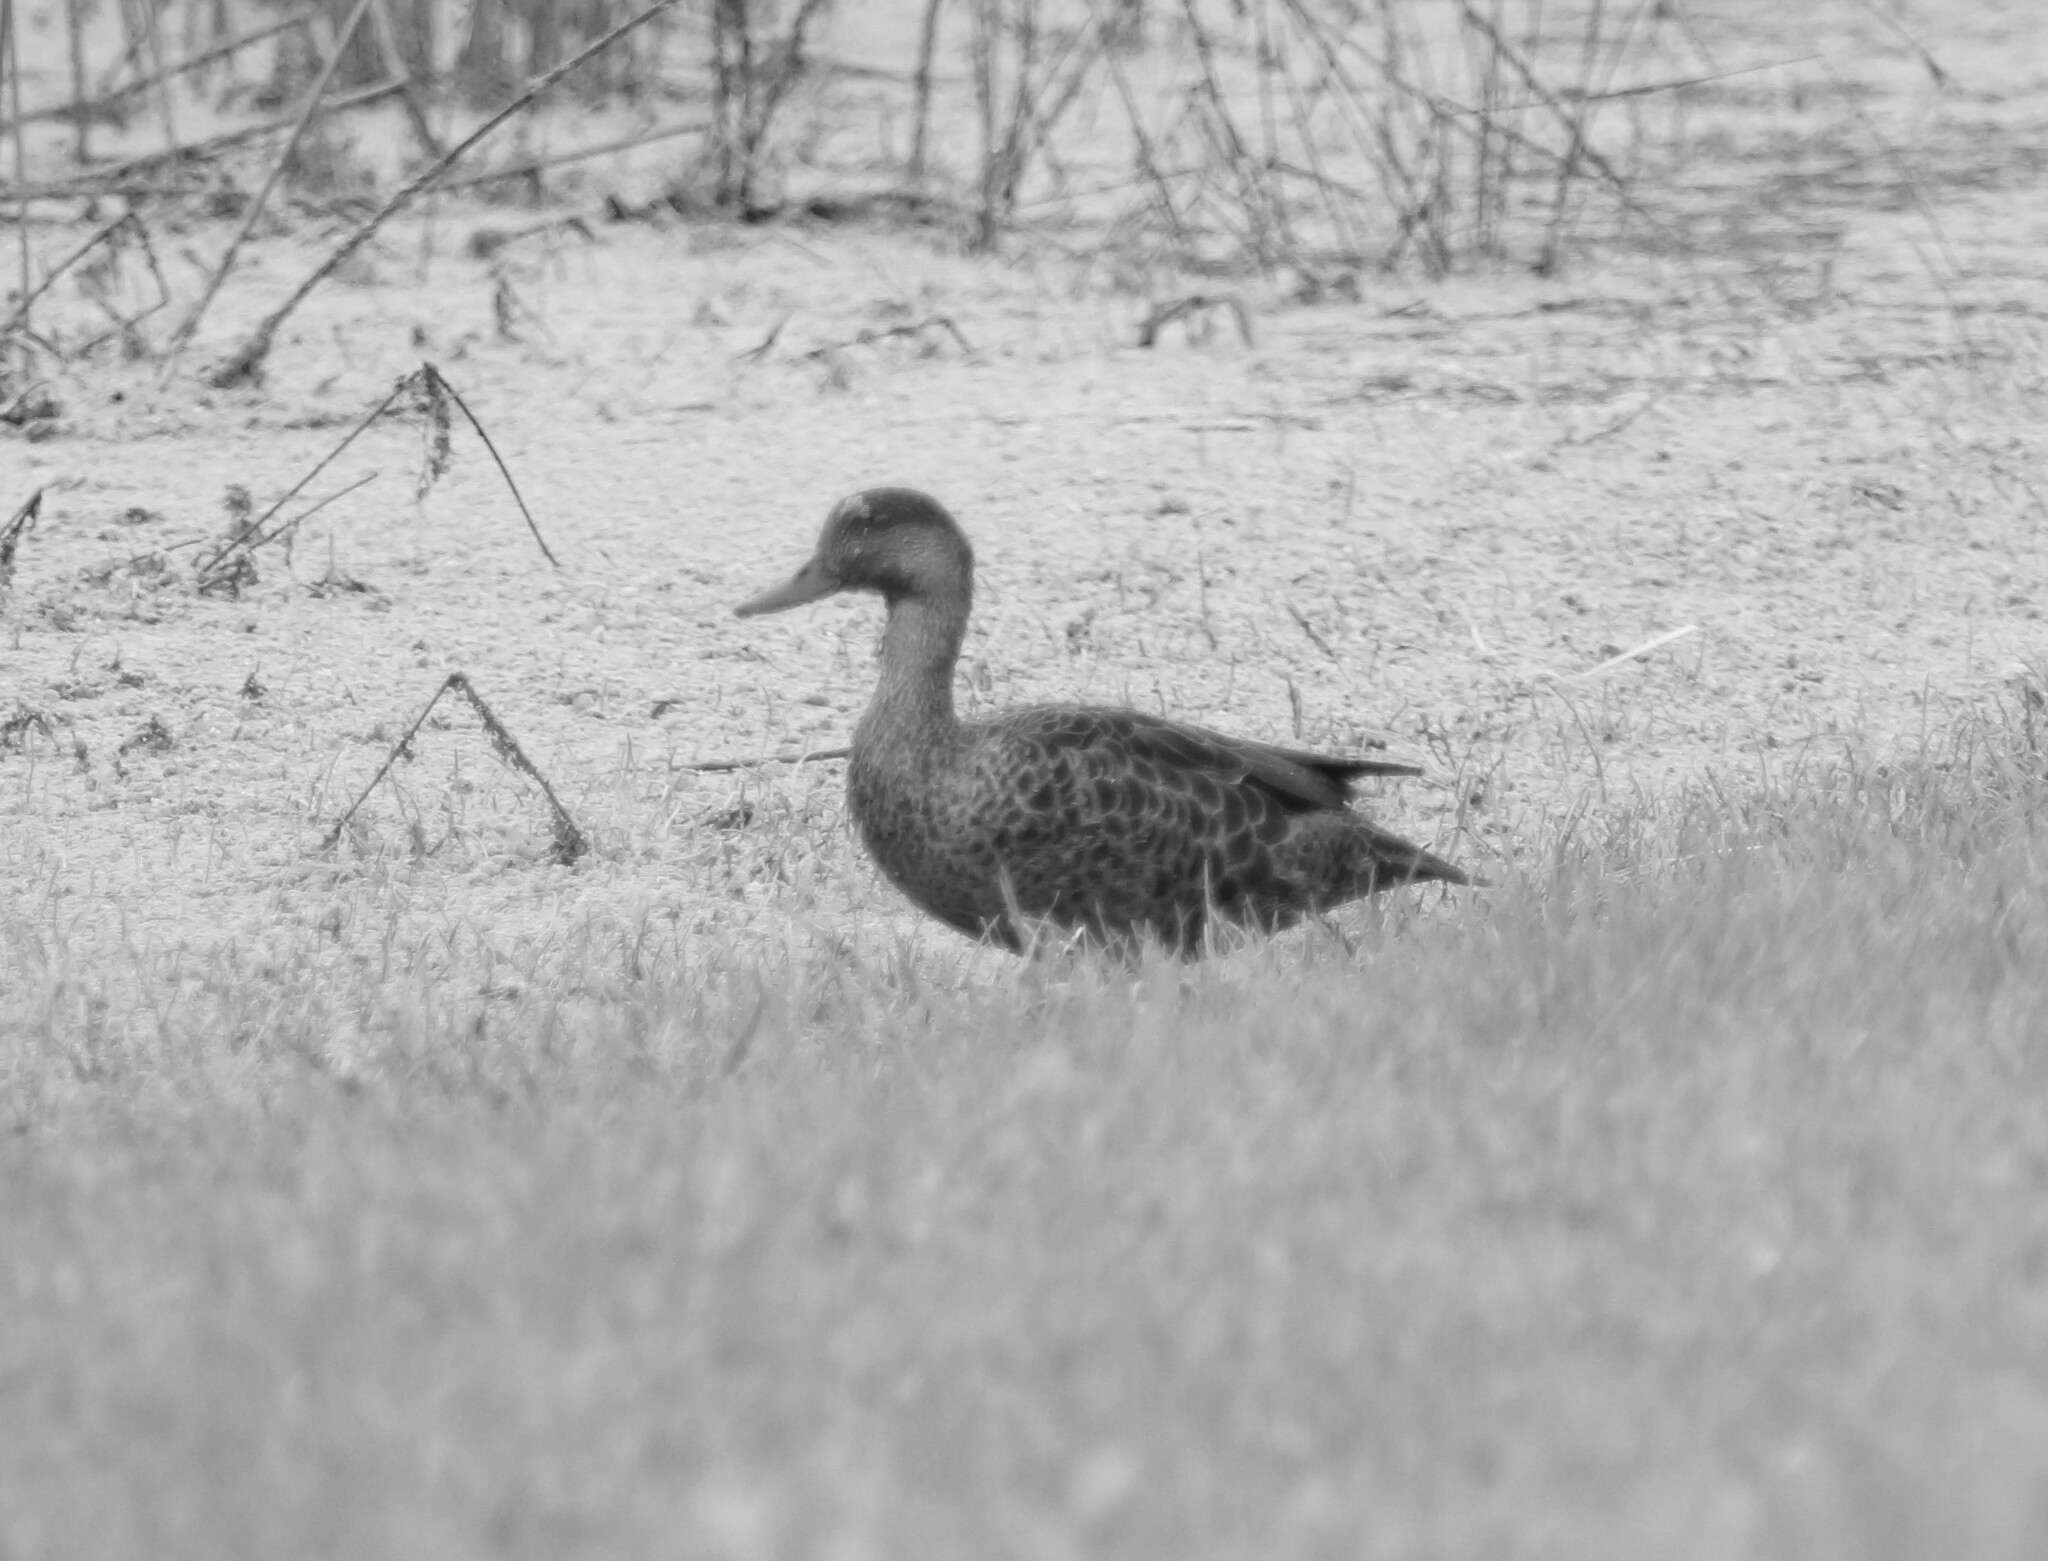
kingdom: Animalia
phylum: Chordata
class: Aves
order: Anseriformes
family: Anatidae
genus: Anas
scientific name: Anas castanea
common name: Chestnut teal
